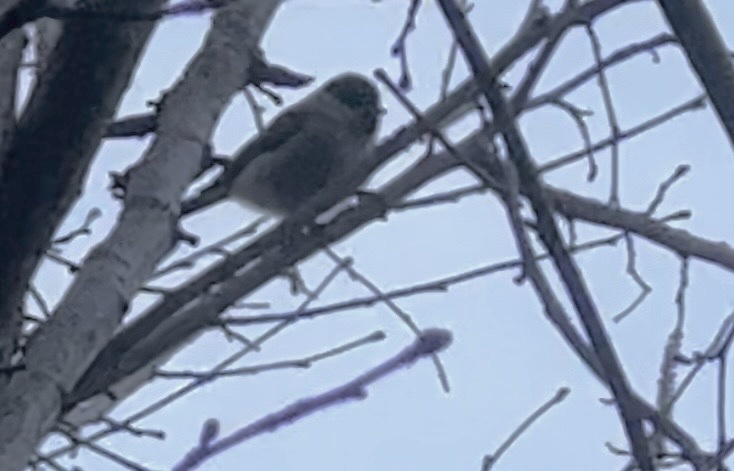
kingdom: Animalia
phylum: Chordata
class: Aves
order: Passeriformes
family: Paridae
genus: Poecile
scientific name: Poecile palustris
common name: Marsh tit
